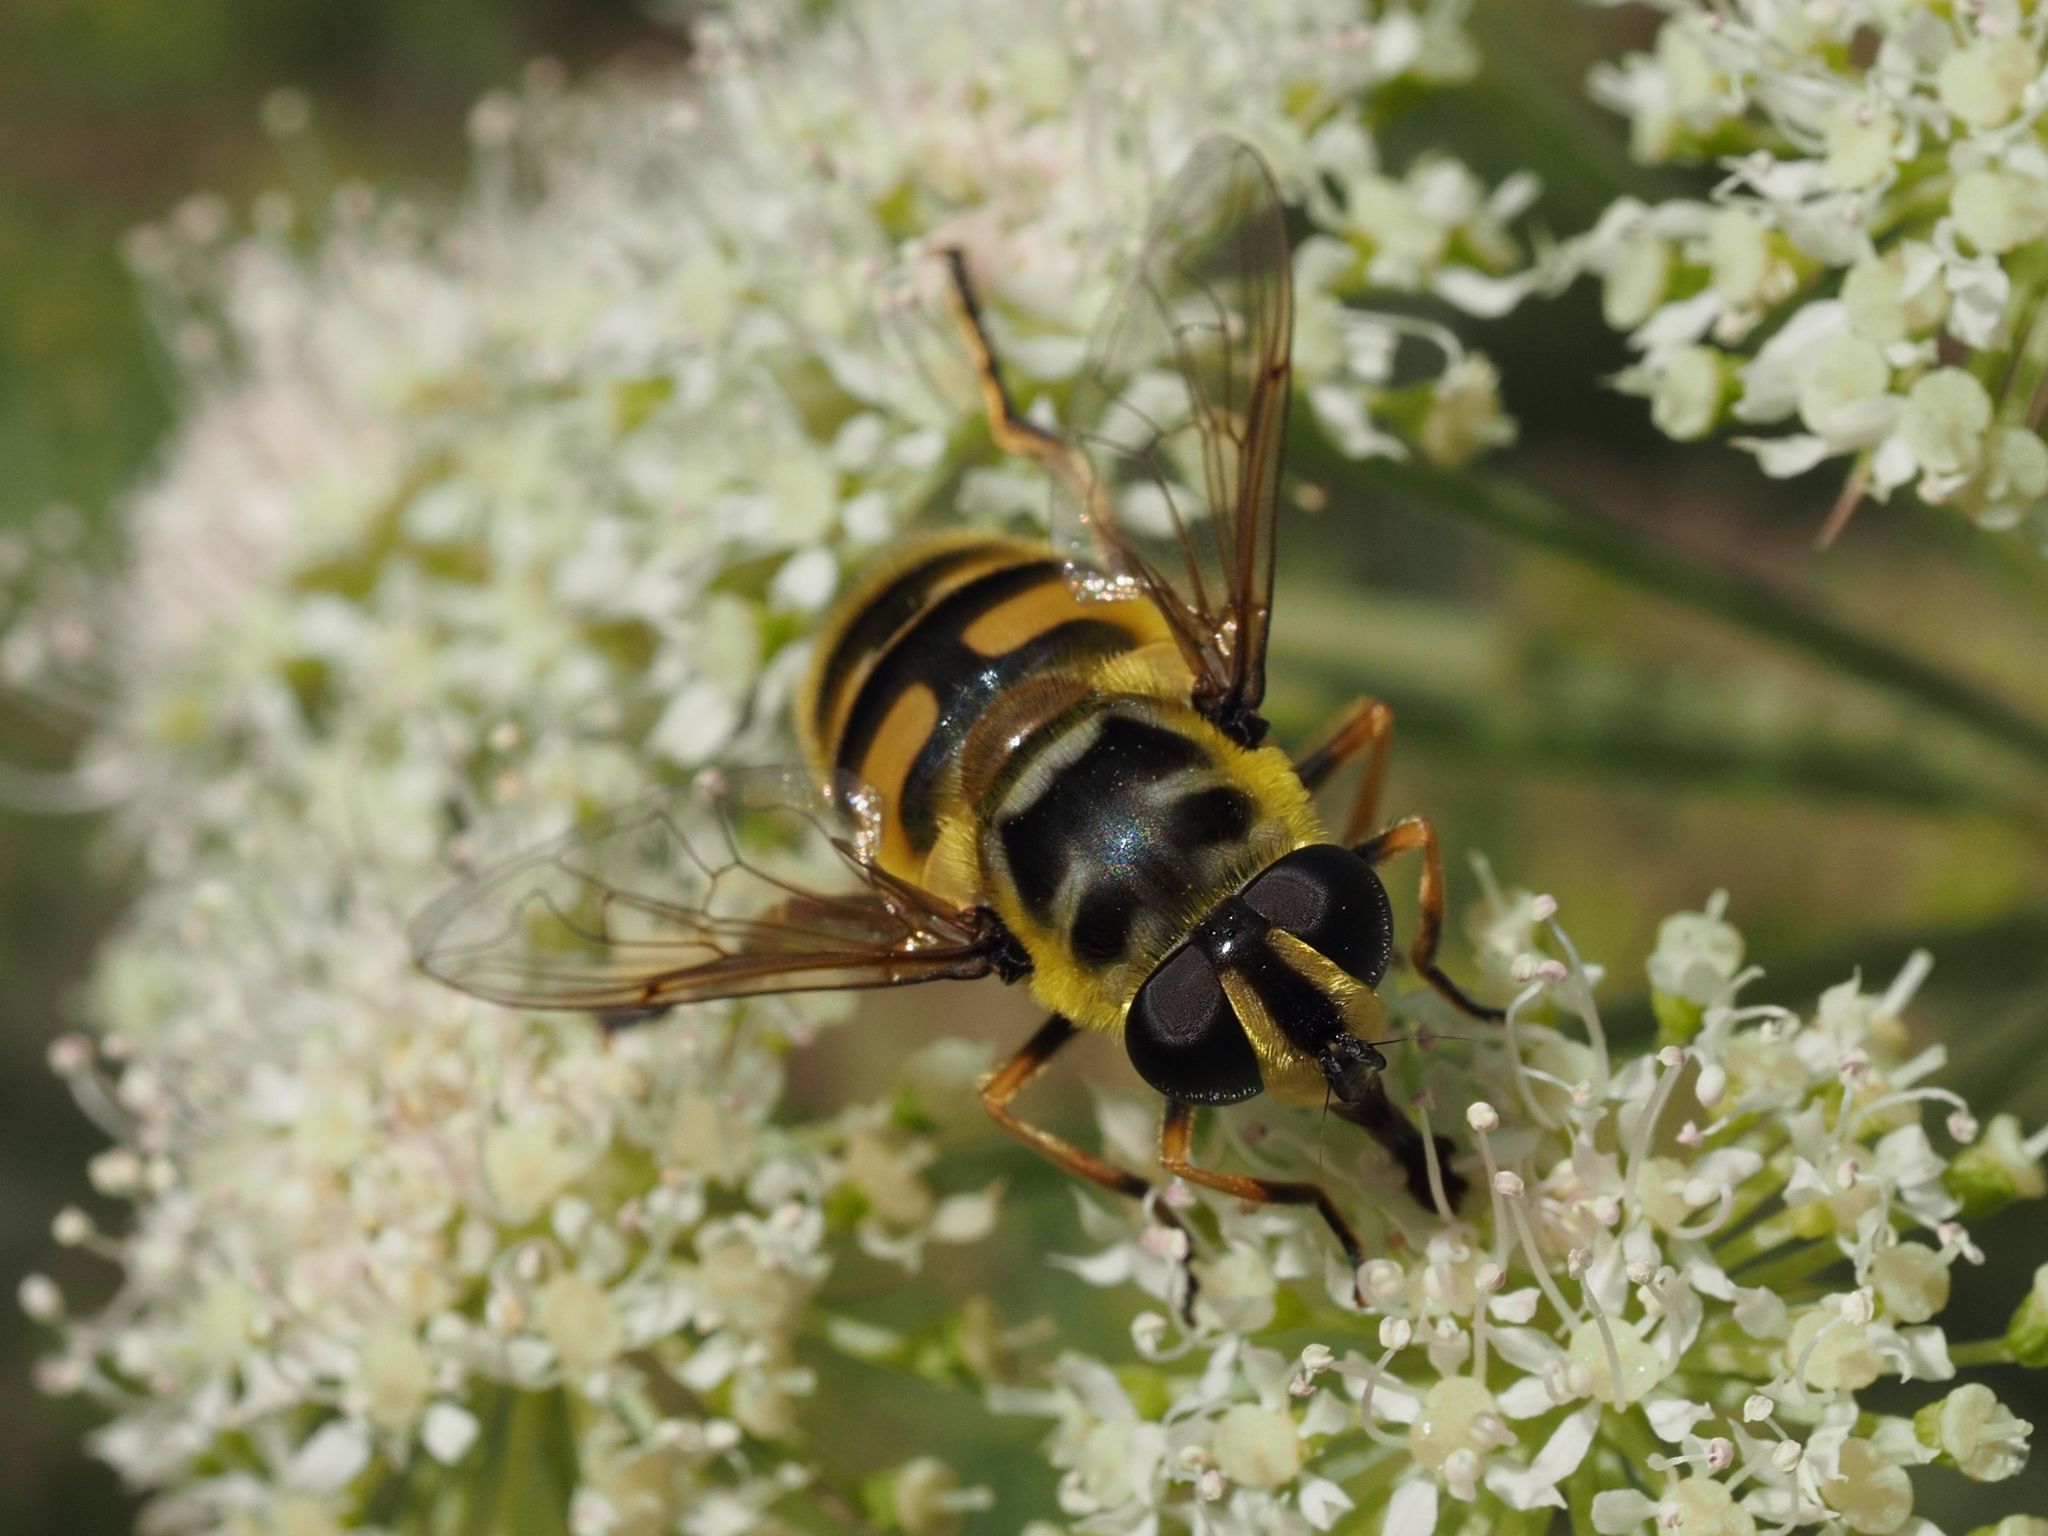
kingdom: Animalia
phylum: Arthropoda
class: Insecta
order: Diptera
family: Syrphidae
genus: Myathropa
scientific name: Myathropa florea
